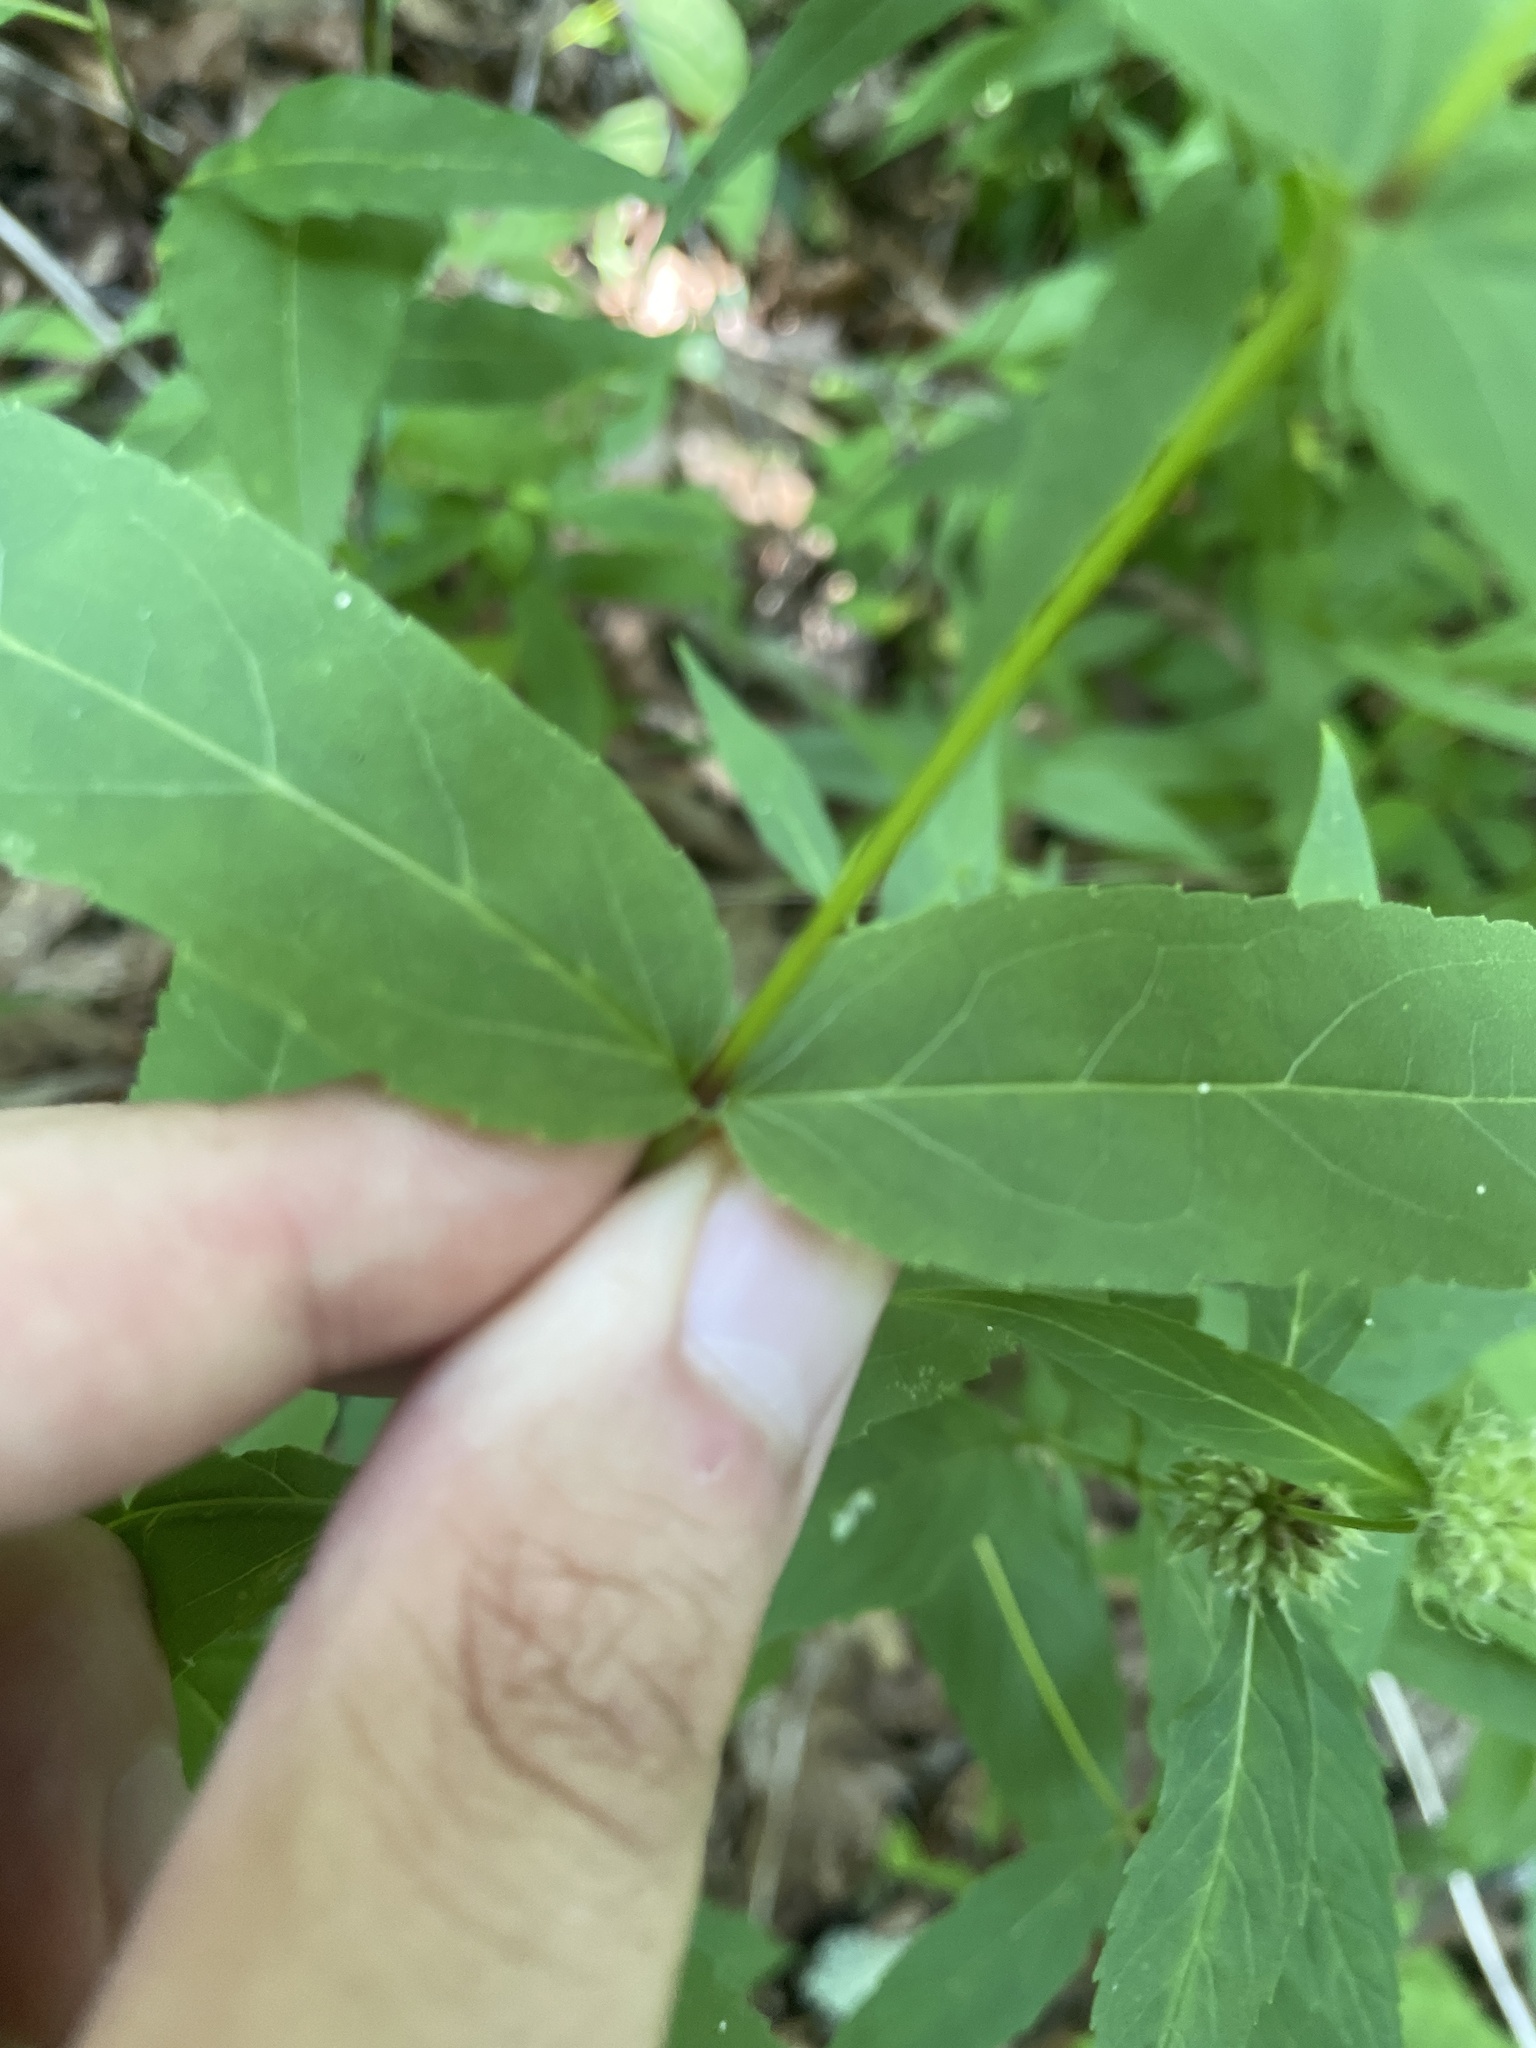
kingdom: Plantae
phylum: Tracheophyta
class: Magnoliopsida
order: Asterales
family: Asteraceae
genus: Eupatorium
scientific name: Eupatorium sessilifolium
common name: Upland boneset
